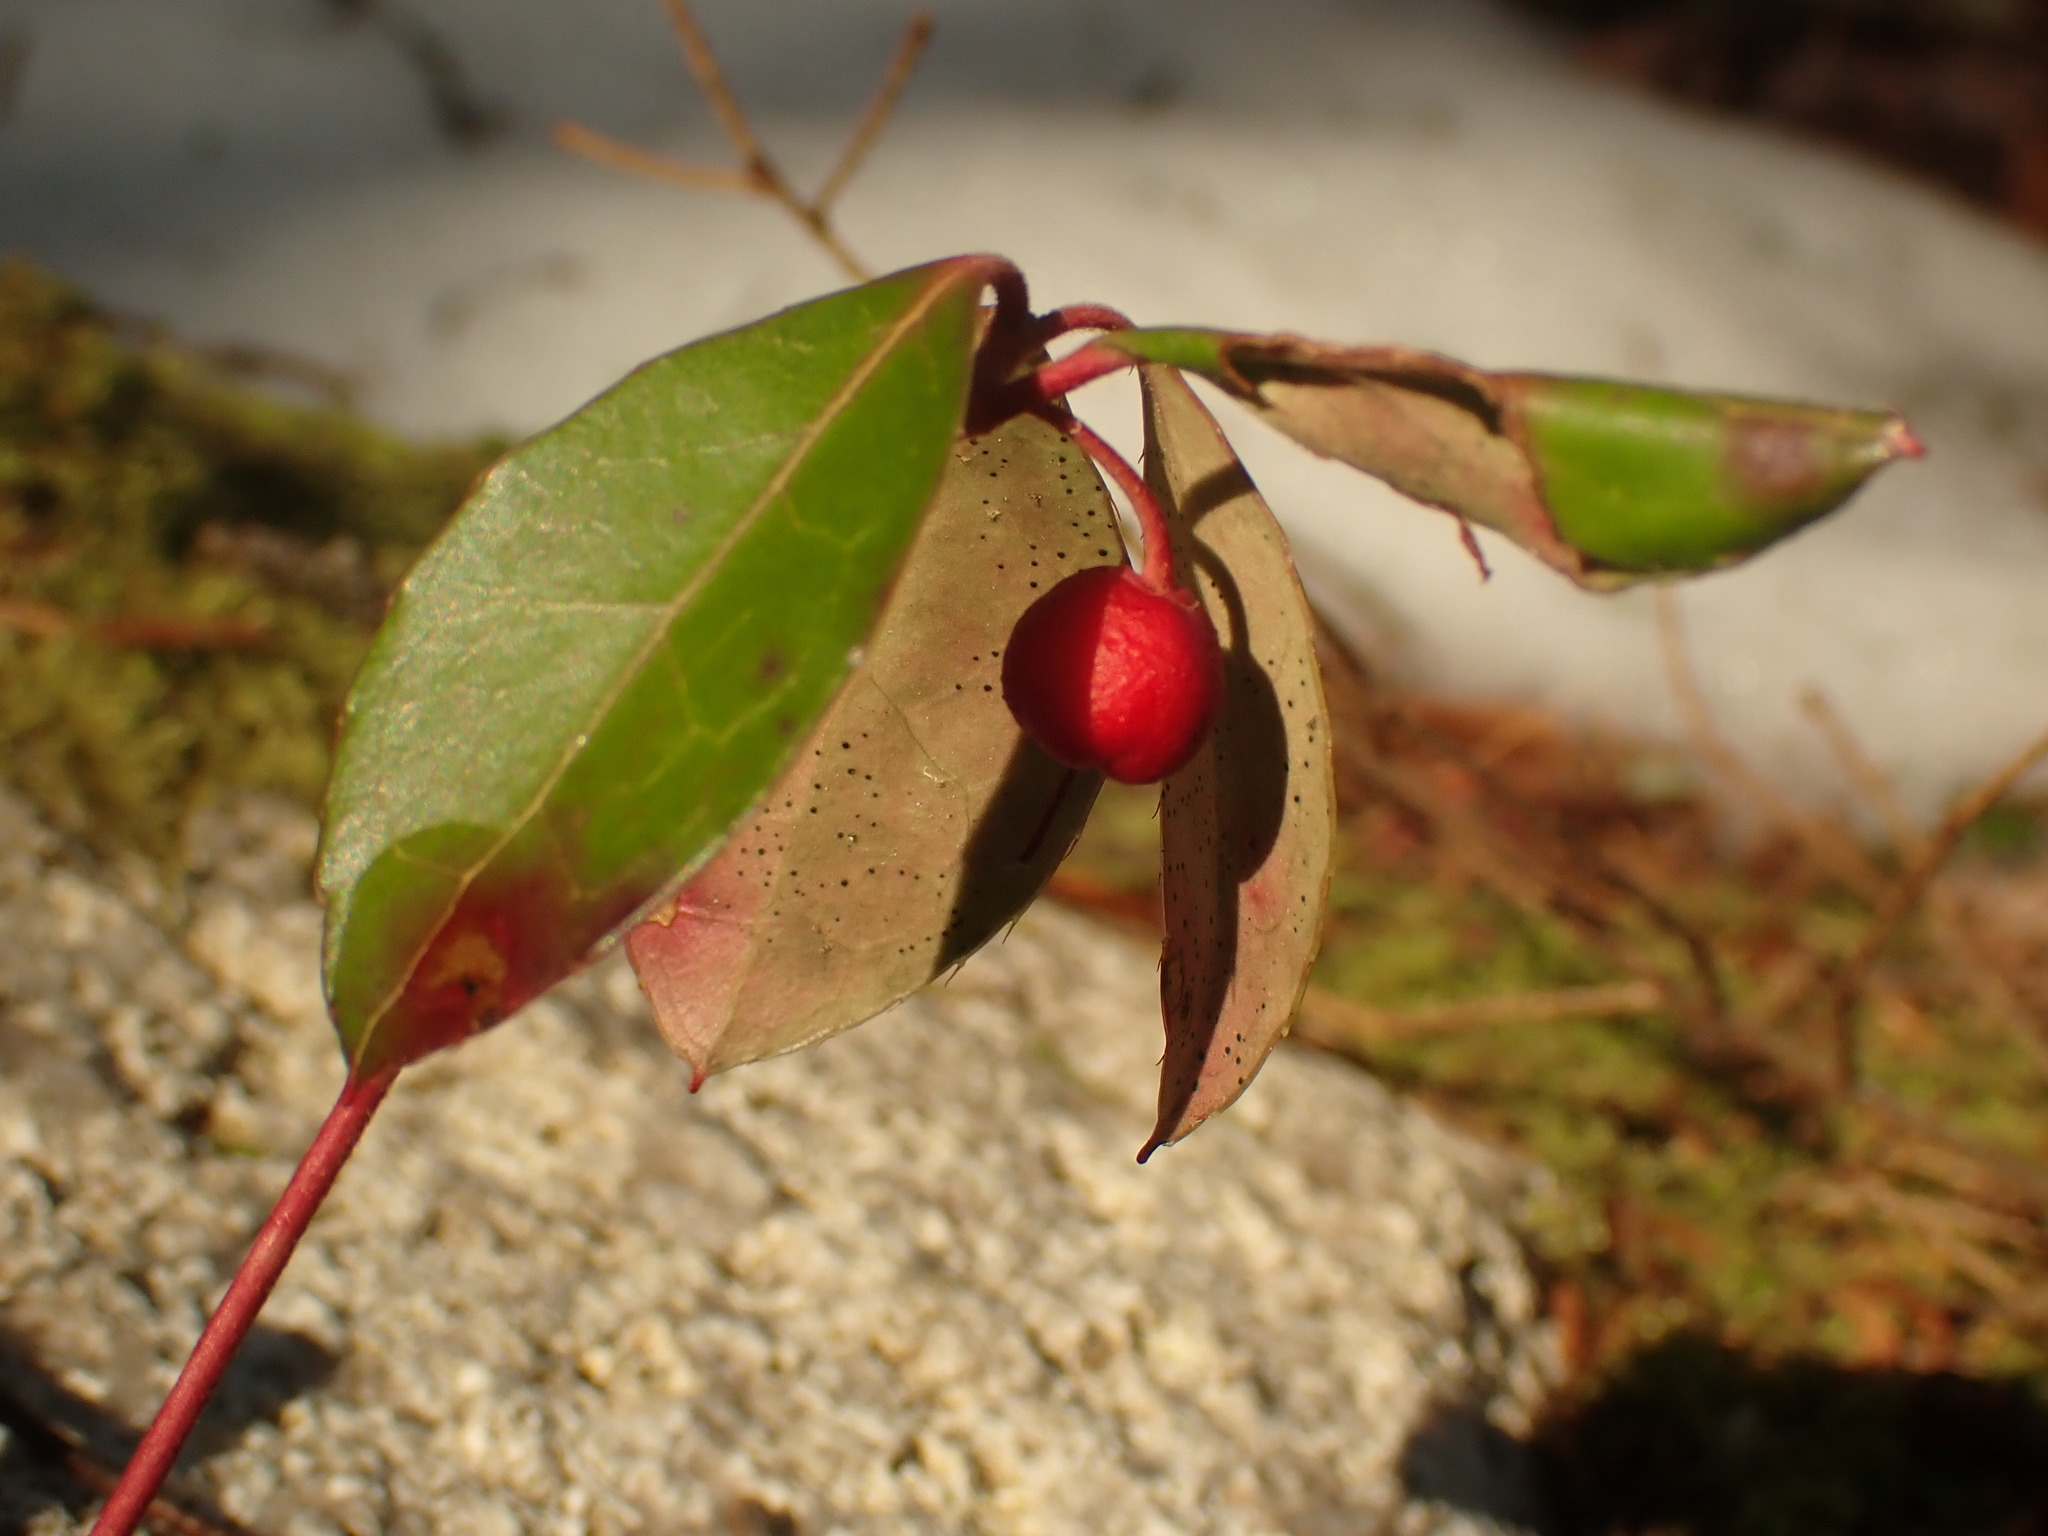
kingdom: Plantae
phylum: Tracheophyta
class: Magnoliopsida
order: Ericales
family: Ericaceae
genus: Gaultheria
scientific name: Gaultheria procumbens
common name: Checkerberry
